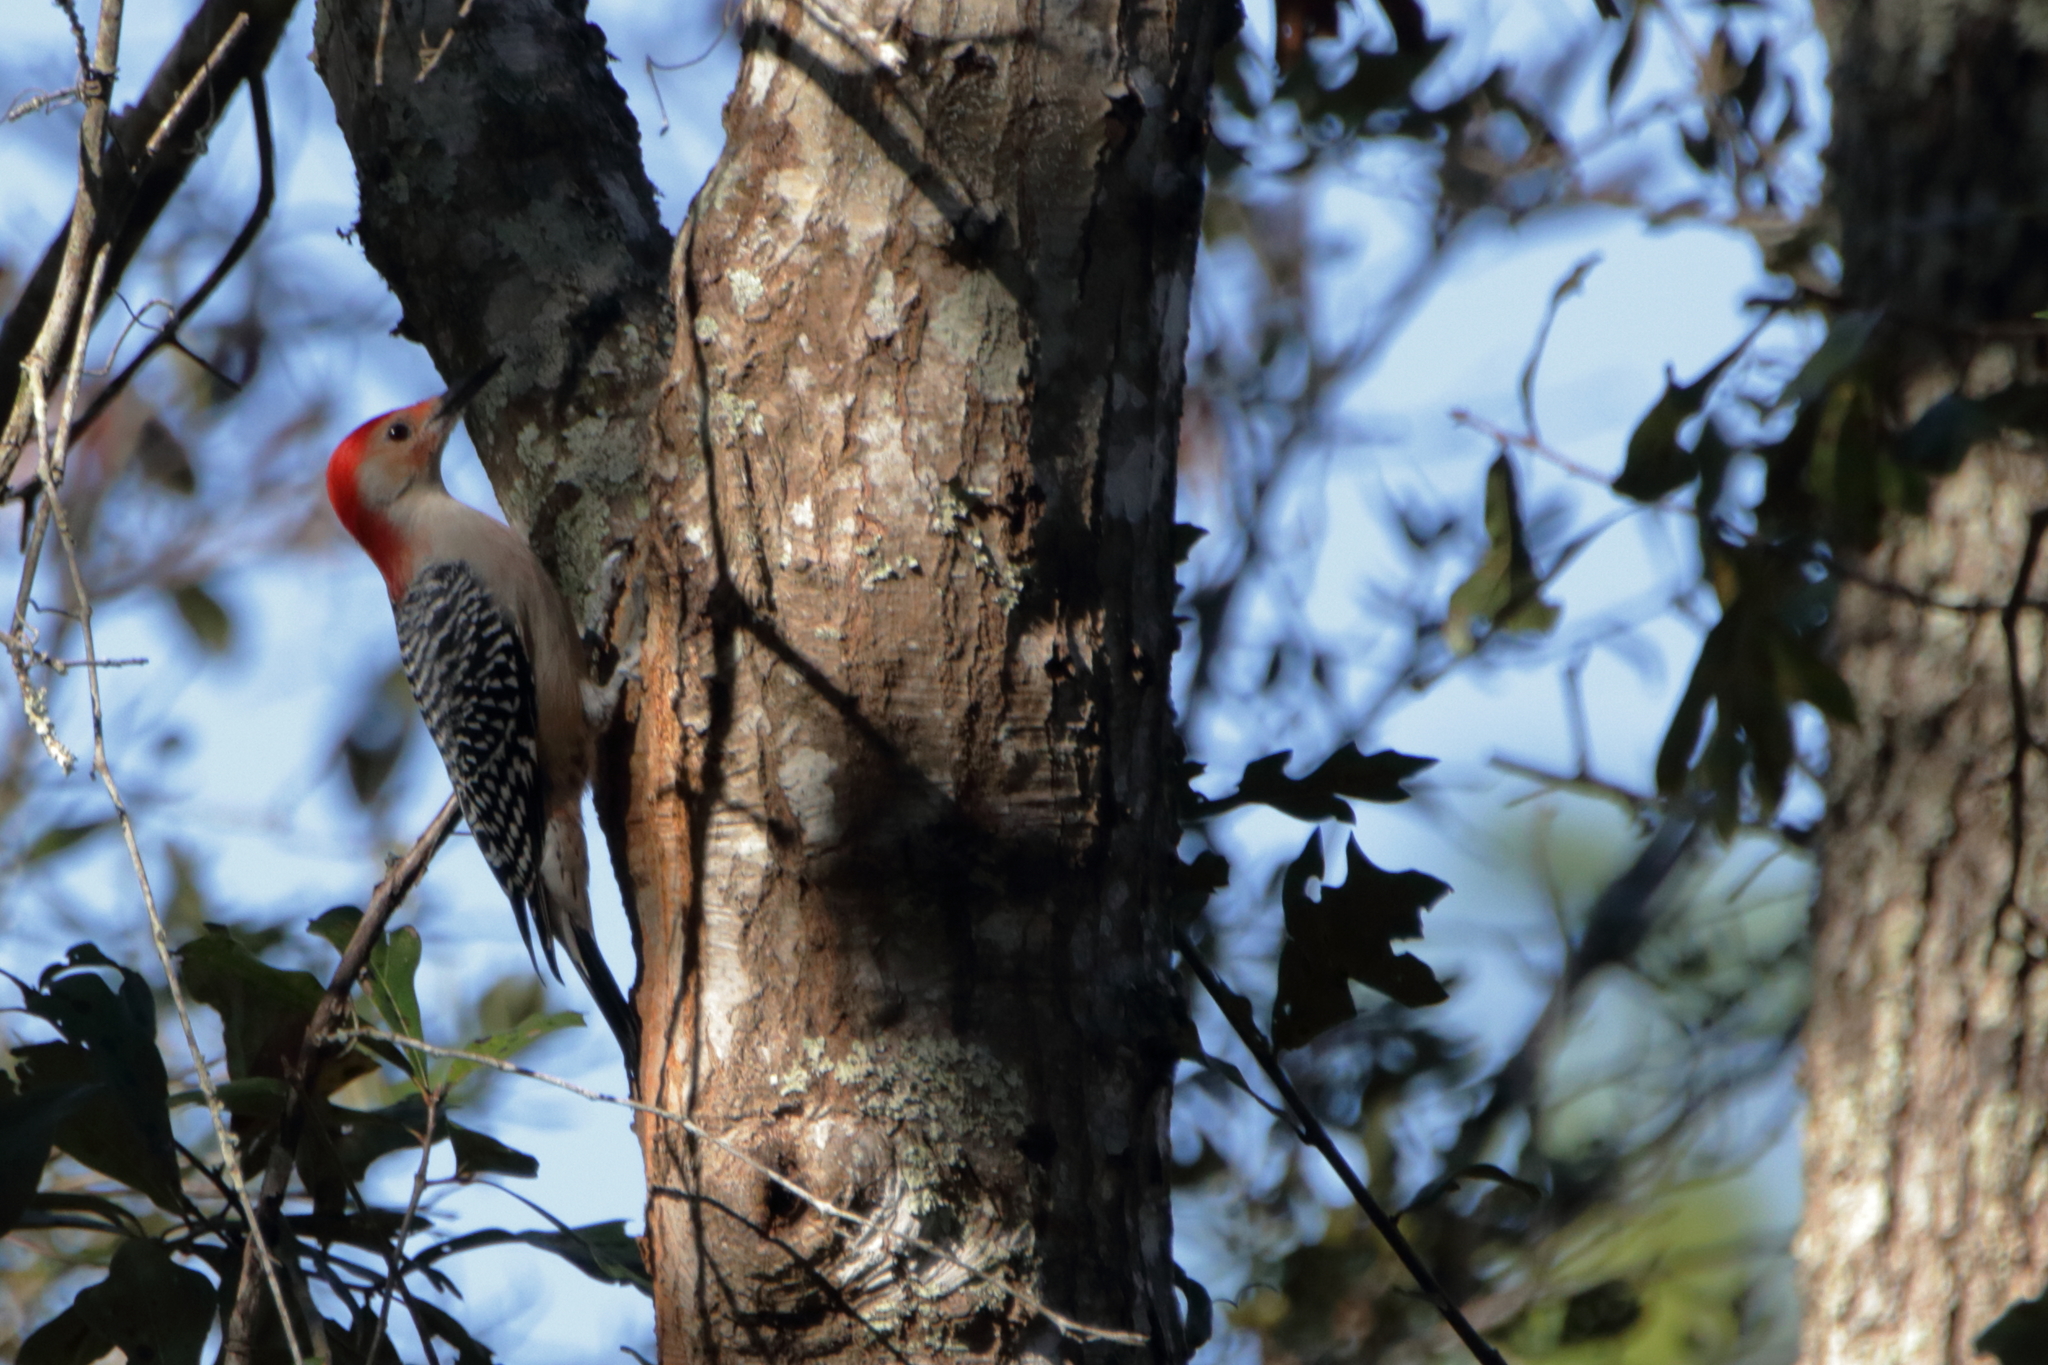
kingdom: Animalia
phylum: Chordata
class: Aves
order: Piciformes
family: Picidae
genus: Melanerpes
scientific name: Melanerpes carolinus
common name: Red-bellied woodpecker
